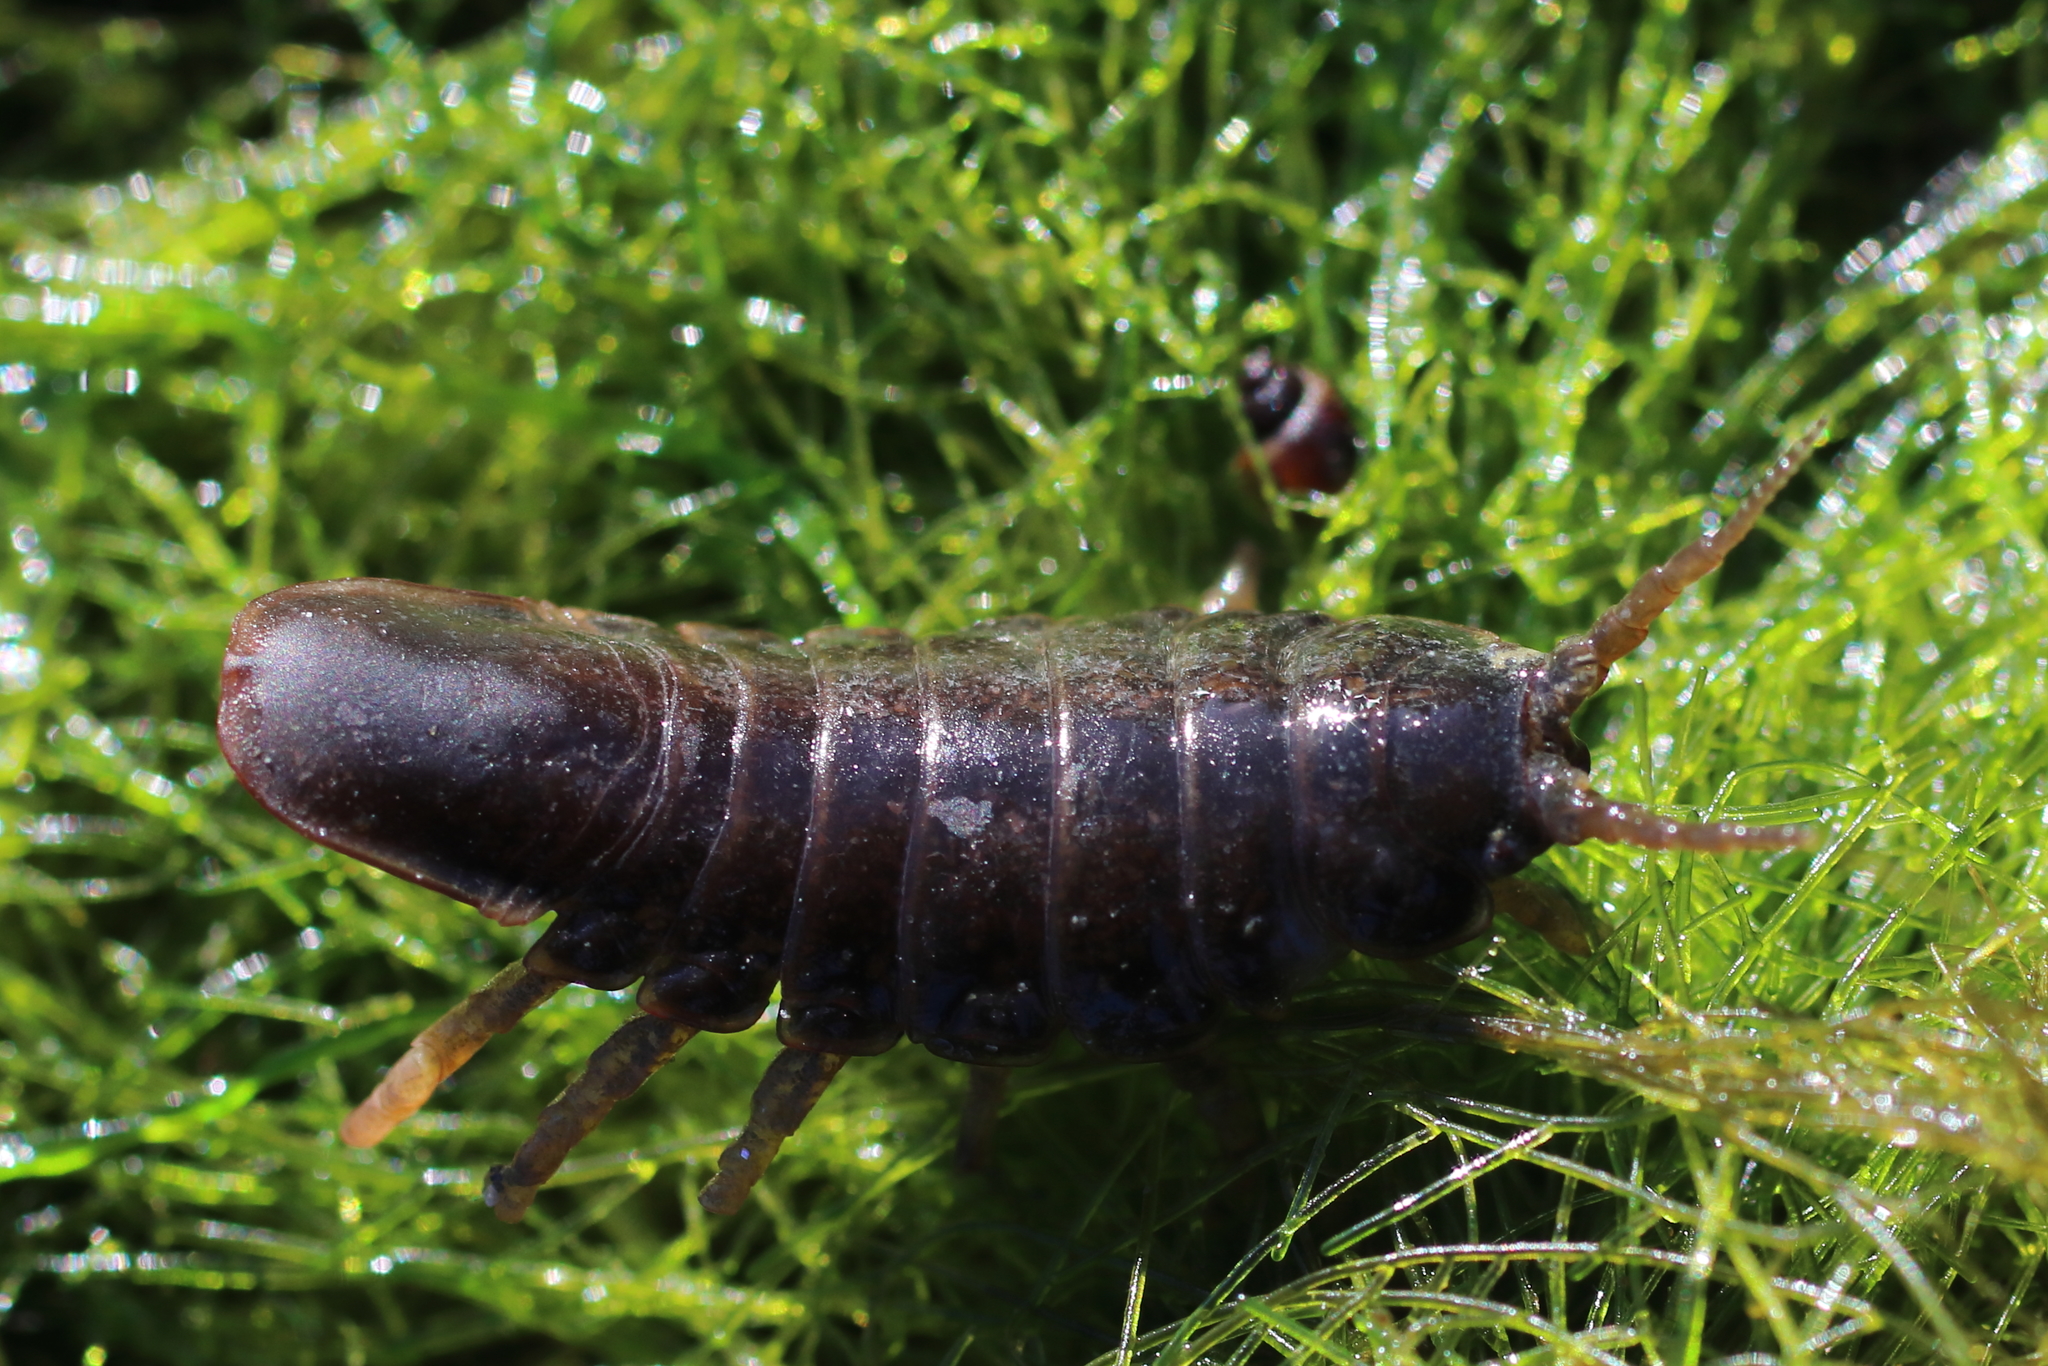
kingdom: Animalia
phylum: Arthropoda
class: Malacostraca
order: Isopoda
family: Idoteidae
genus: Pentidotea
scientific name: Pentidotea wosnesenskii
